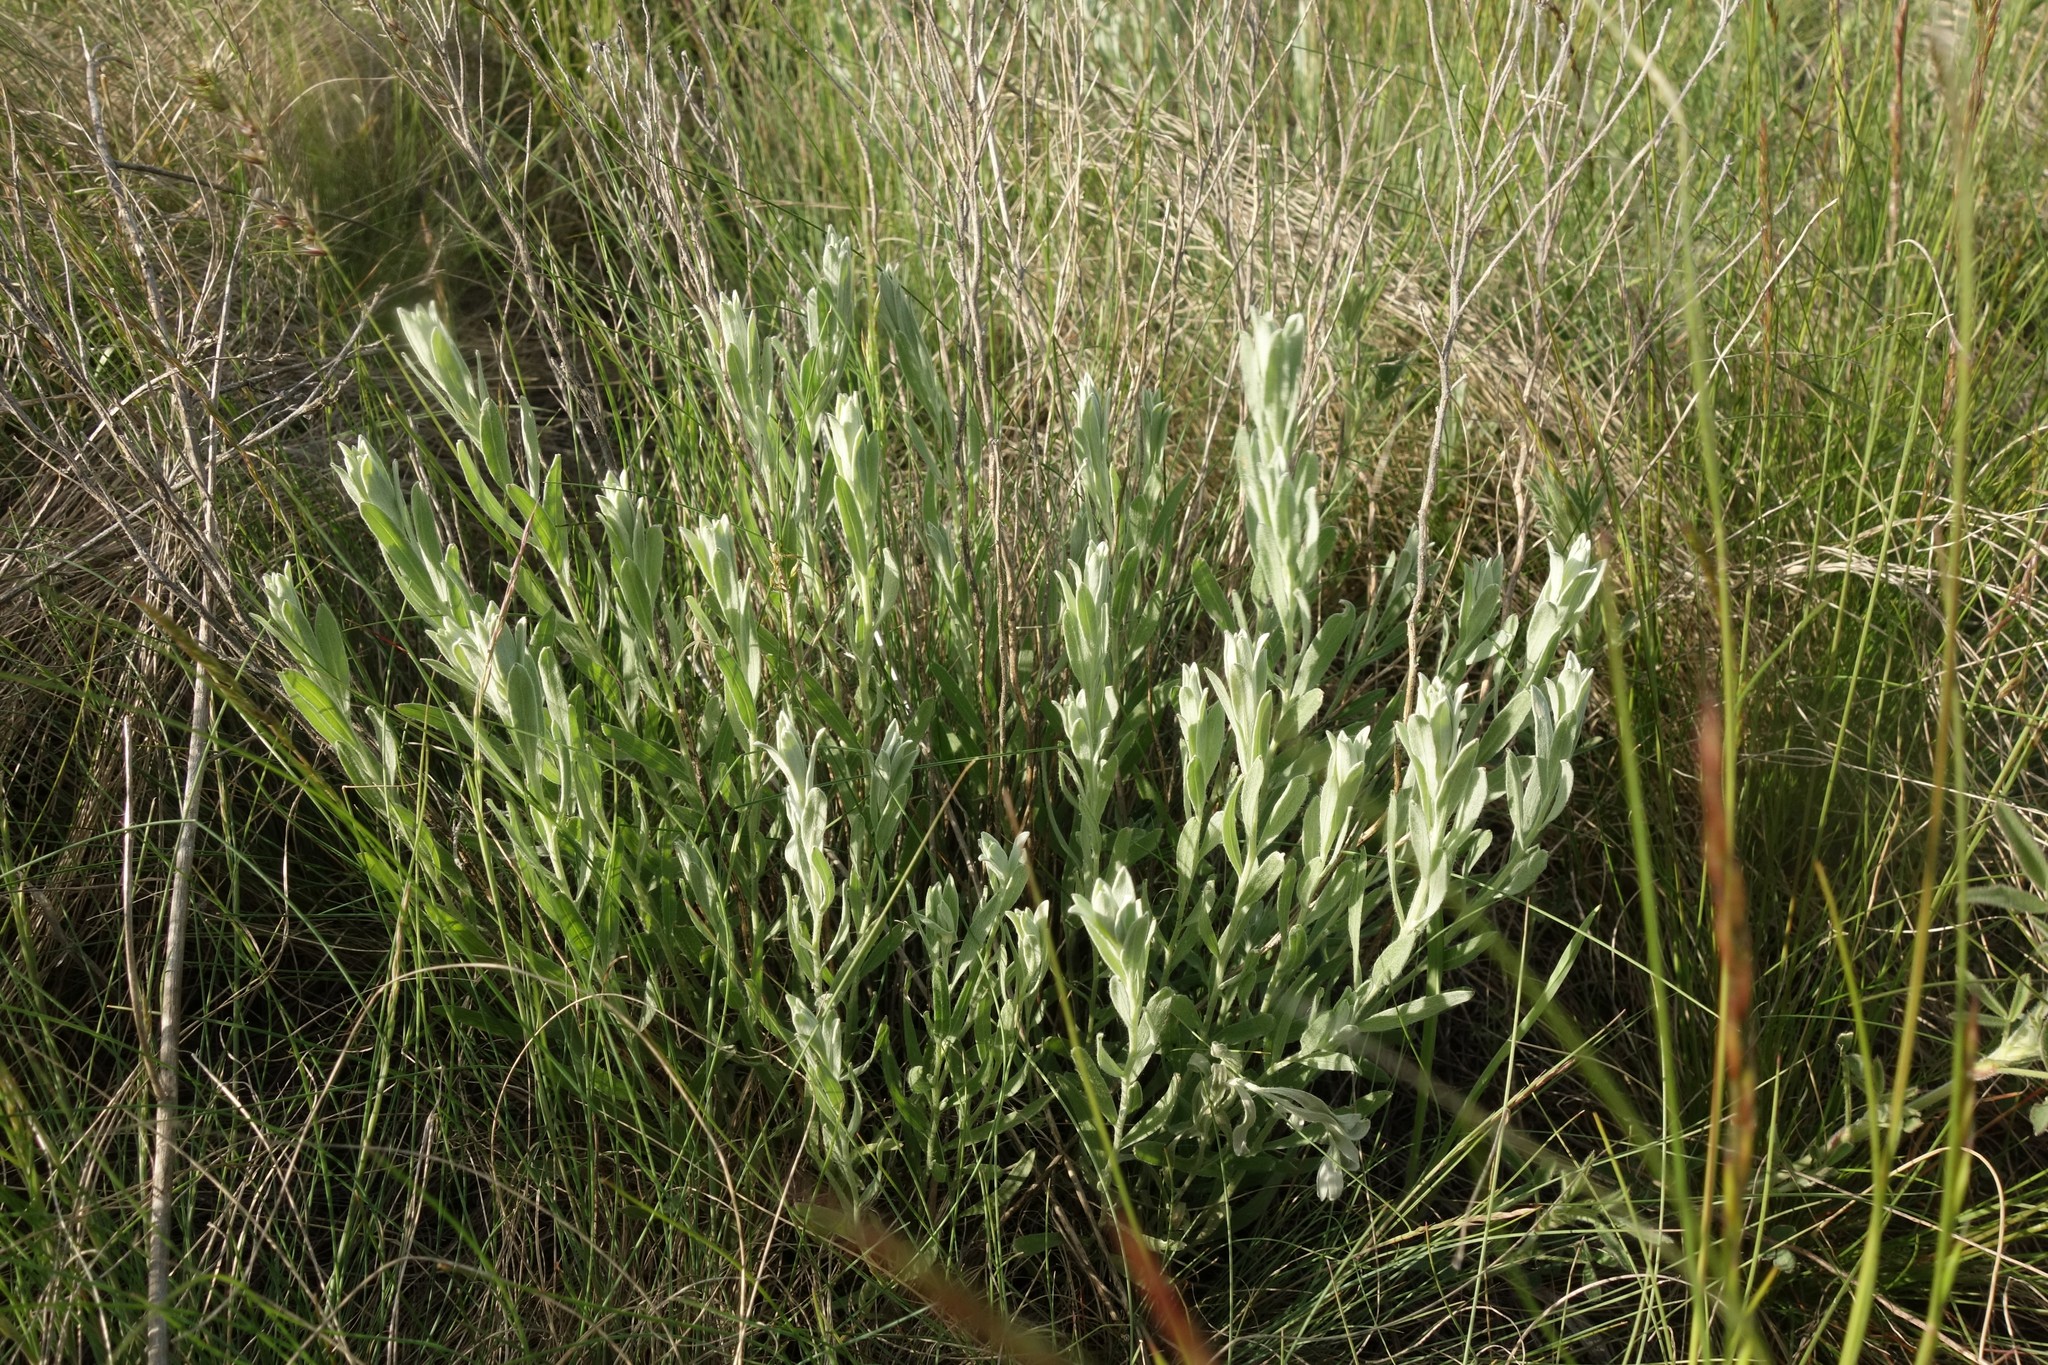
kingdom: Plantae
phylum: Tracheophyta
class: Magnoliopsida
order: Asterales
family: Asteraceae
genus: Galatella
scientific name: Galatella villosa
